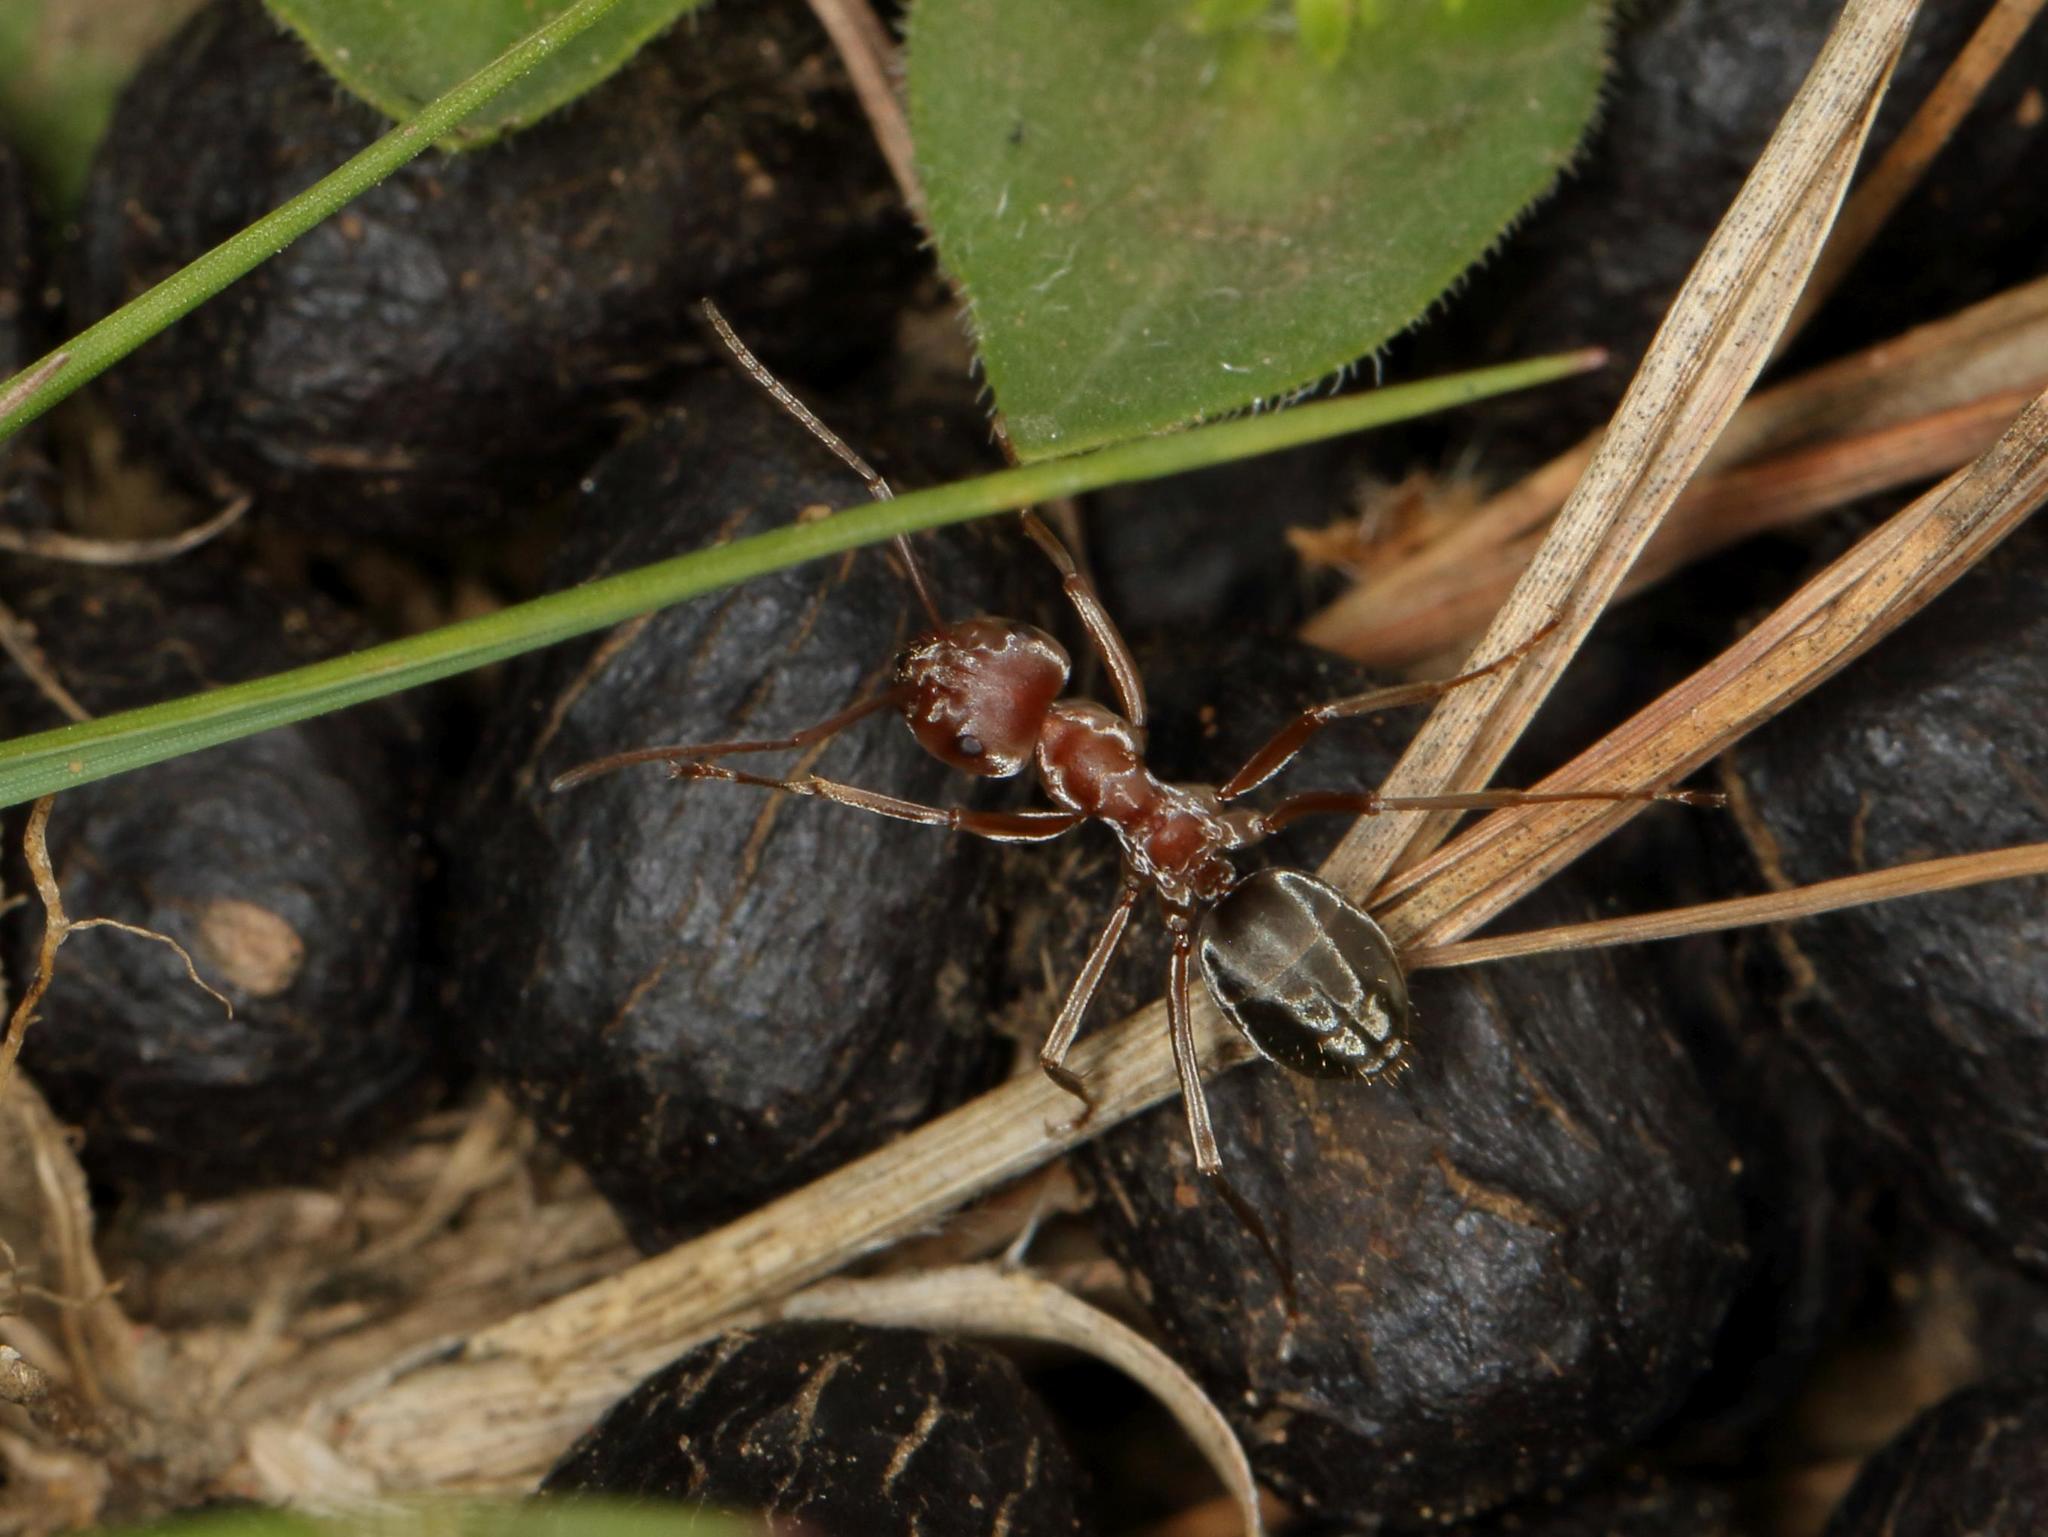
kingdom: Animalia
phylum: Arthropoda
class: Insecta
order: Hymenoptera
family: Formicidae
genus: Anoplolepis
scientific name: Anoplolepis custodiens
